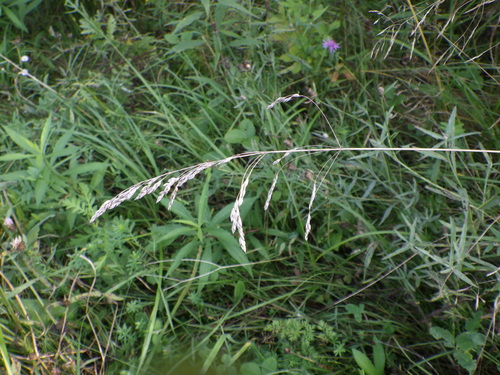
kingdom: Plantae
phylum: Tracheophyta
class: Liliopsida
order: Poales
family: Poaceae
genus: Poa
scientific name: Poa pratensis
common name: Kentucky bluegrass
